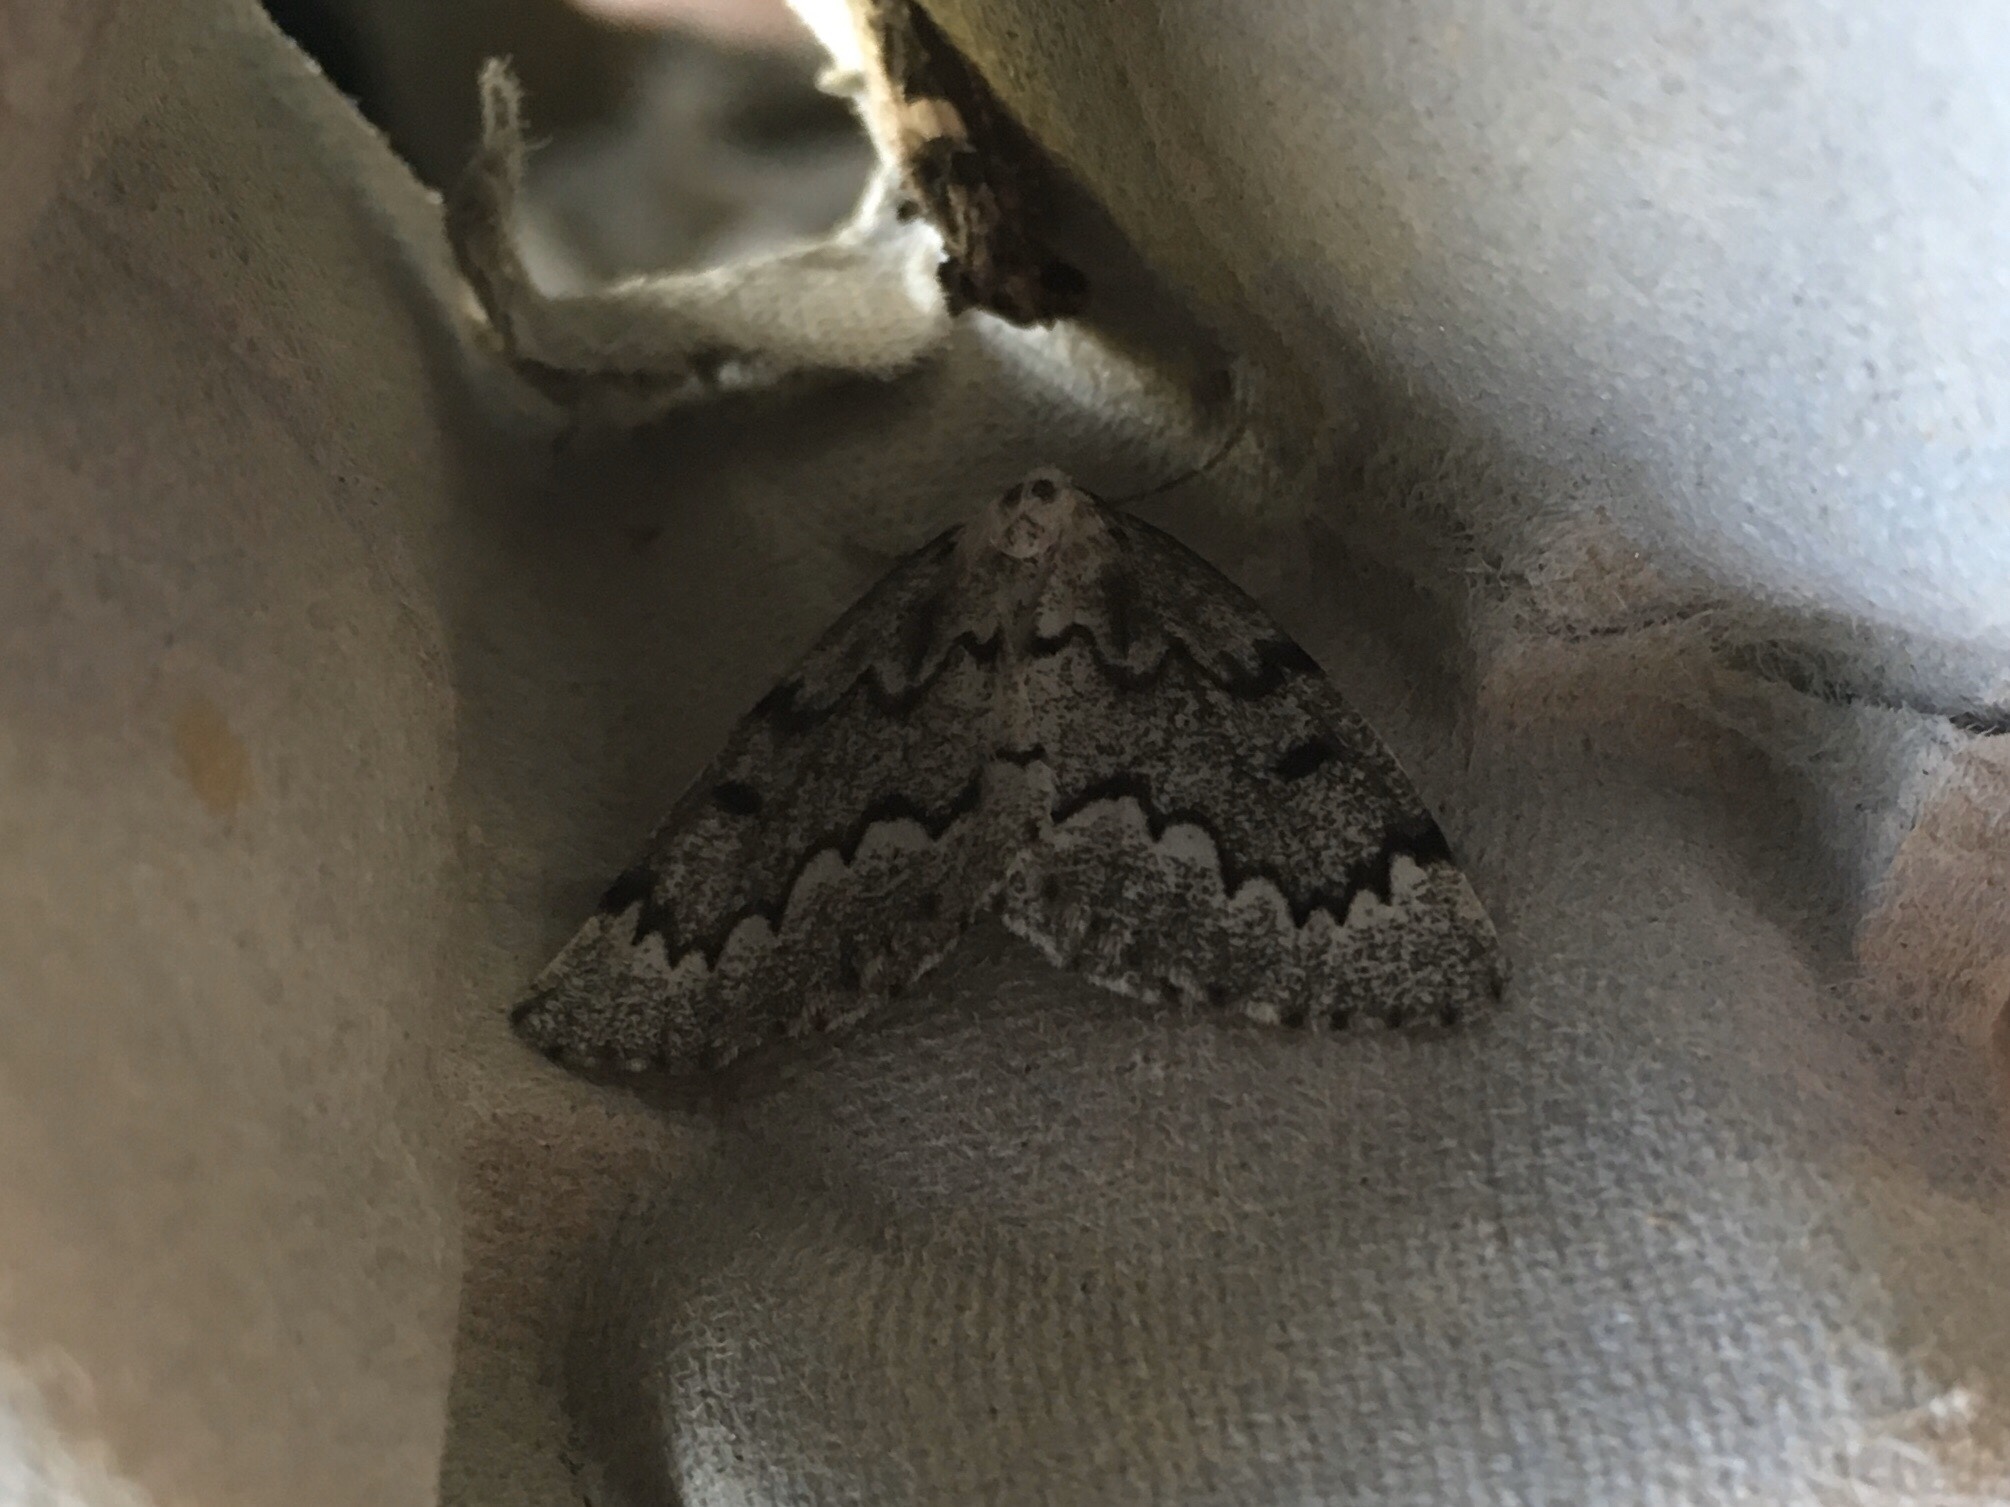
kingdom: Animalia
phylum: Arthropoda
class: Insecta
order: Lepidoptera
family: Geometridae
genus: Nepytia
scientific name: Nepytia canosaria
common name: False hemlock looper
